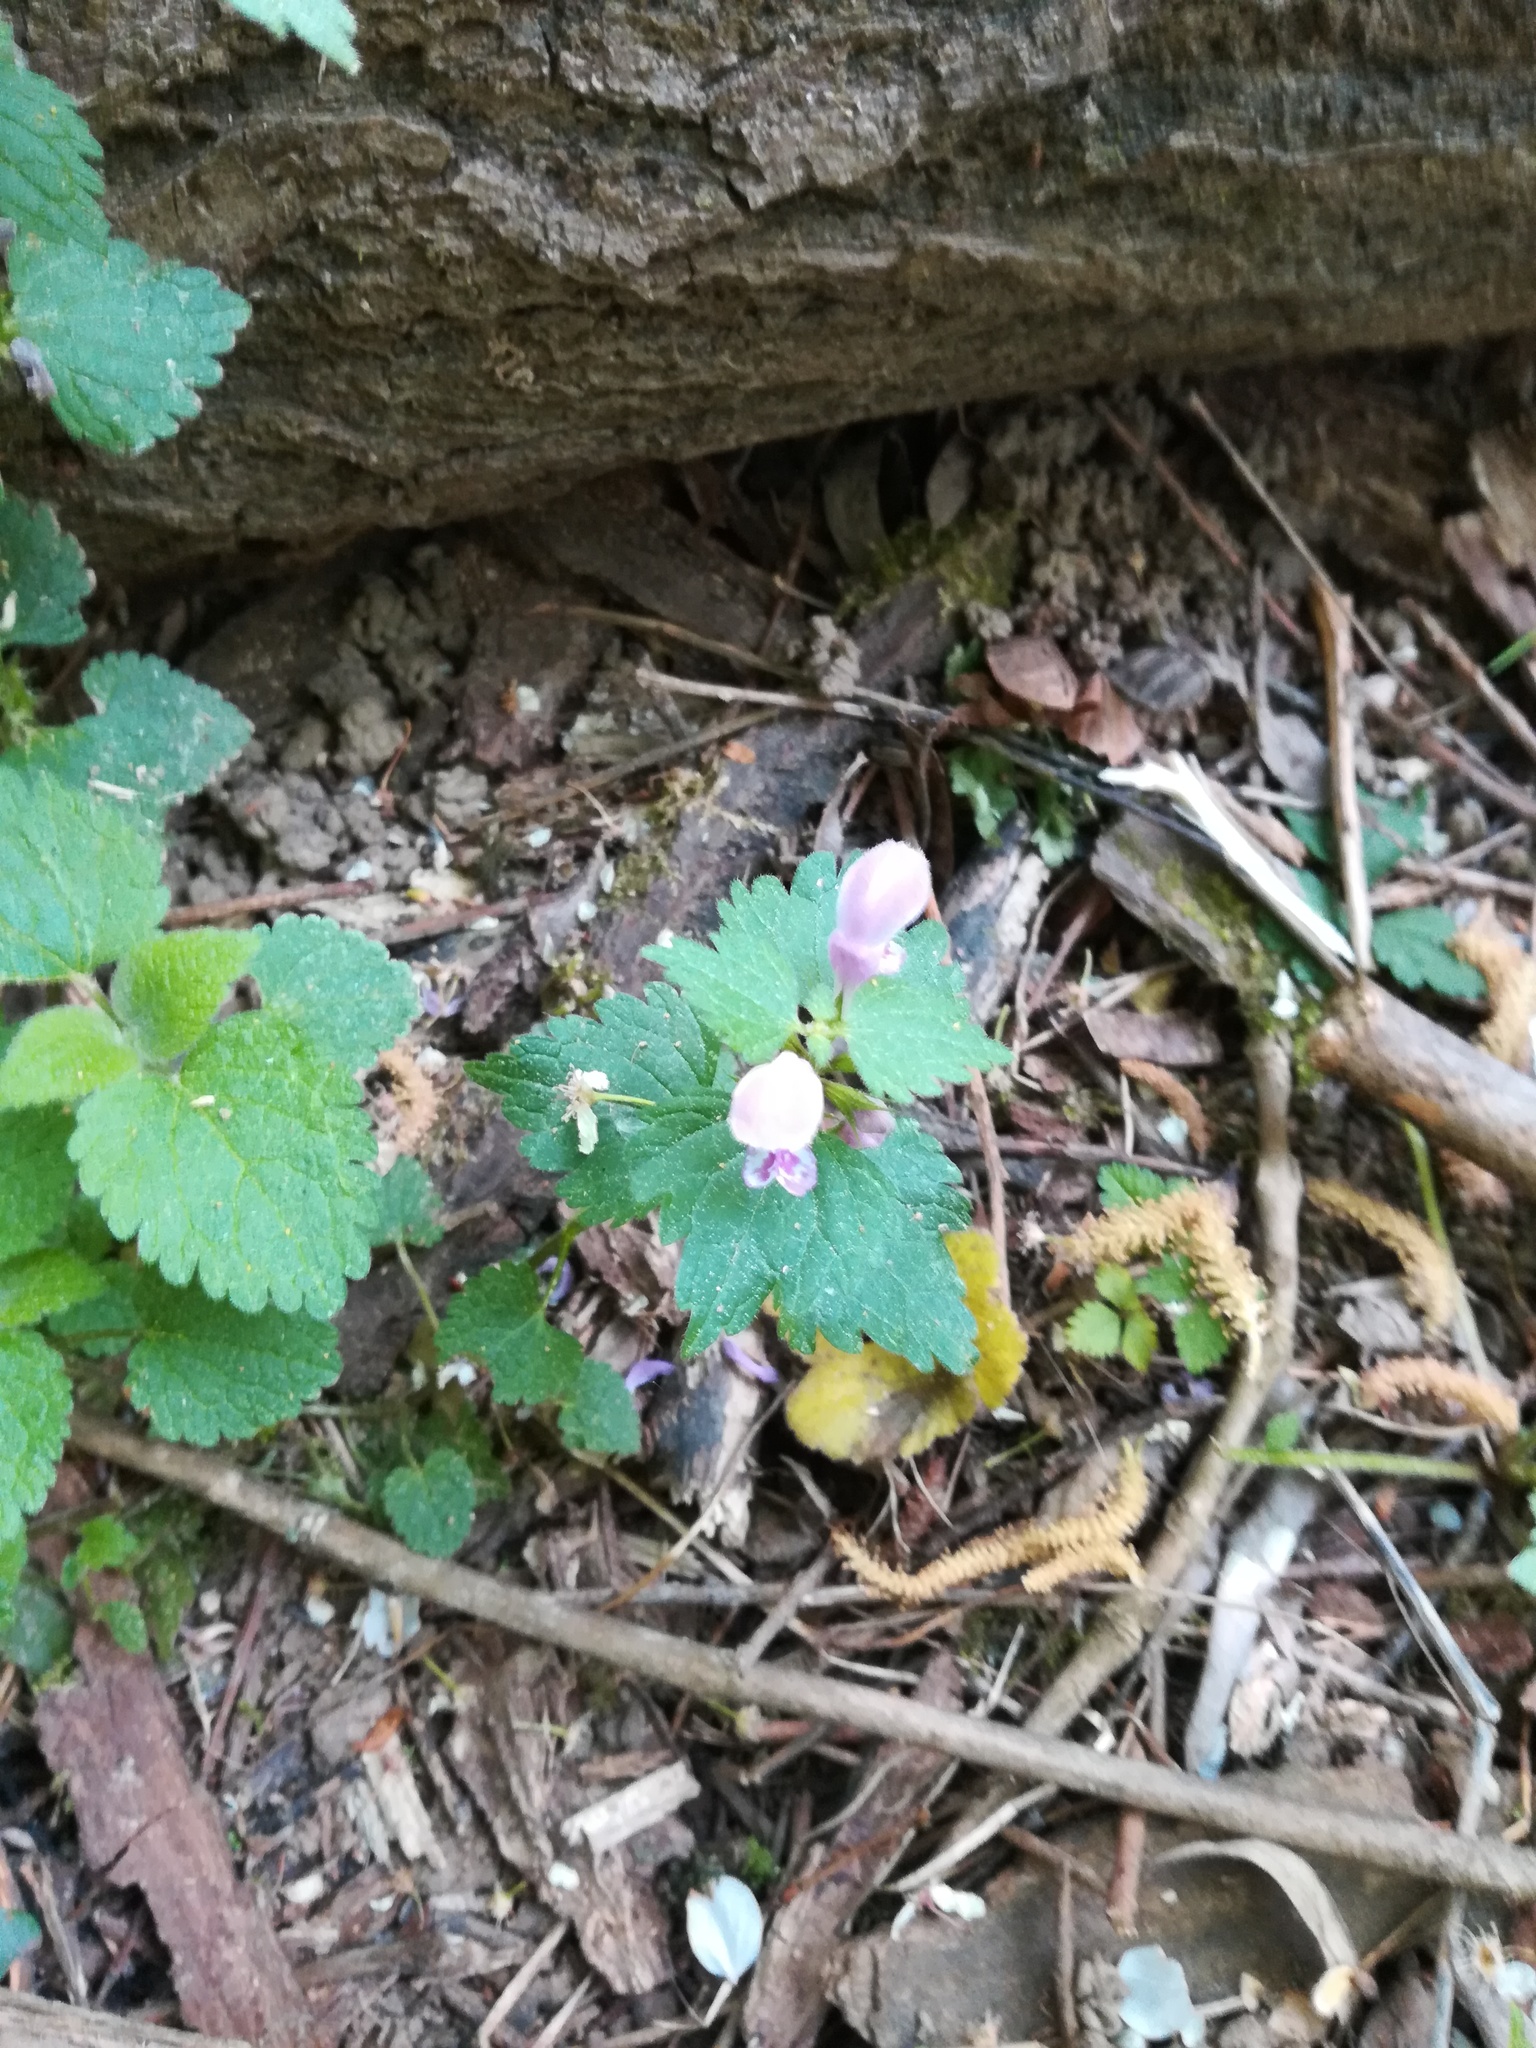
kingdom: Plantae
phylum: Tracheophyta
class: Magnoliopsida
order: Lamiales
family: Lamiaceae
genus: Lamium
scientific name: Lamium maculatum
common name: Spotted dead-nettle
